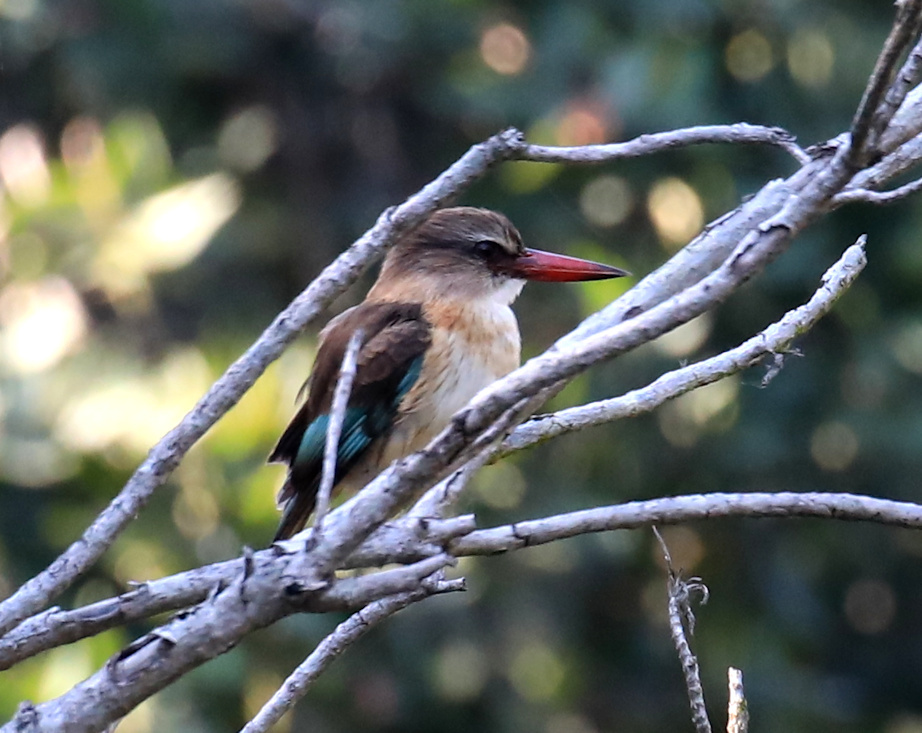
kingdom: Animalia
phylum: Chordata
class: Aves
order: Coraciiformes
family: Alcedinidae
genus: Halcyon
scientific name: Halcyon albiventris
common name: Brown-hooded kingfisher
